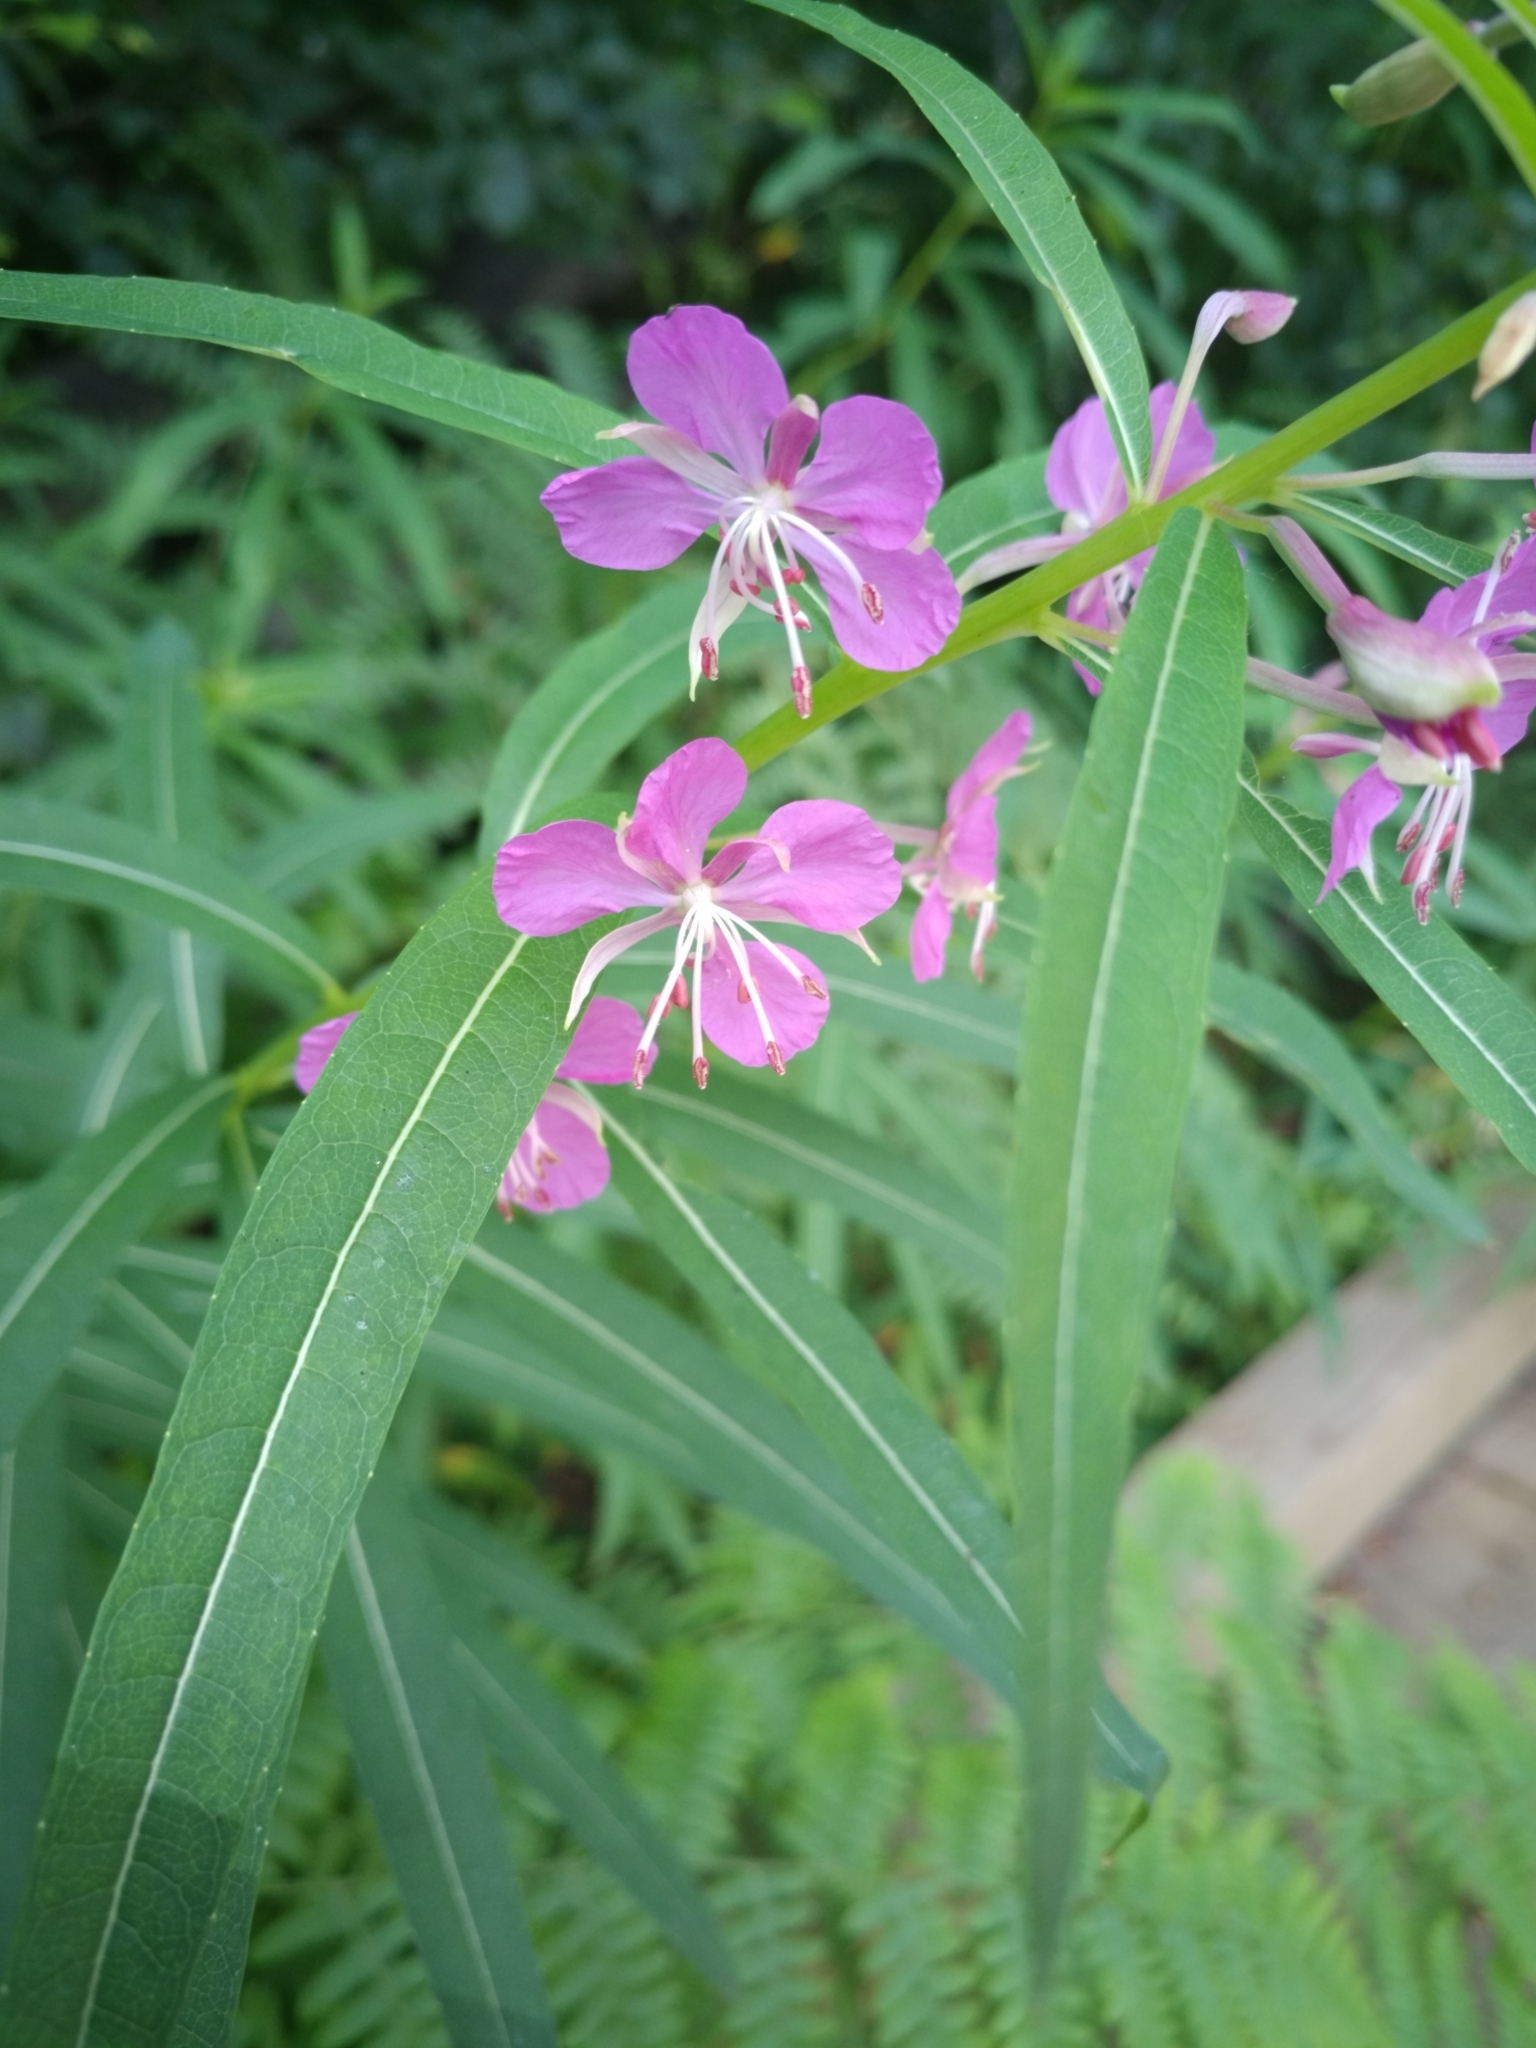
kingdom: Plantae
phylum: Tracheophyta
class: Magnoliopsida
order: Myrtales
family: Onagraceae
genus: Chamaenerion
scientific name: Chamaenerion angustifolium
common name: Fireweed
